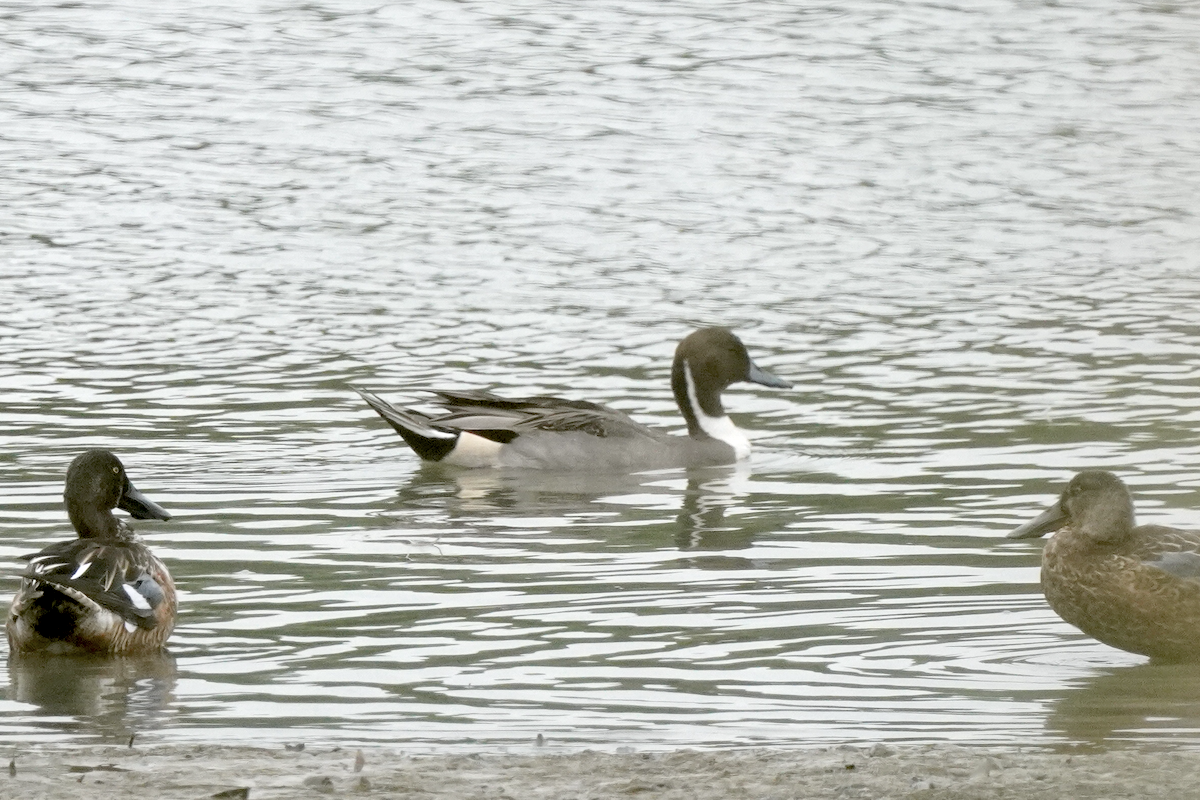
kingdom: Animalia
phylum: Chordata
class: Aves
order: Anseriformes
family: Anatidae
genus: Anas
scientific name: Anas acuta
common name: Northern pintail
